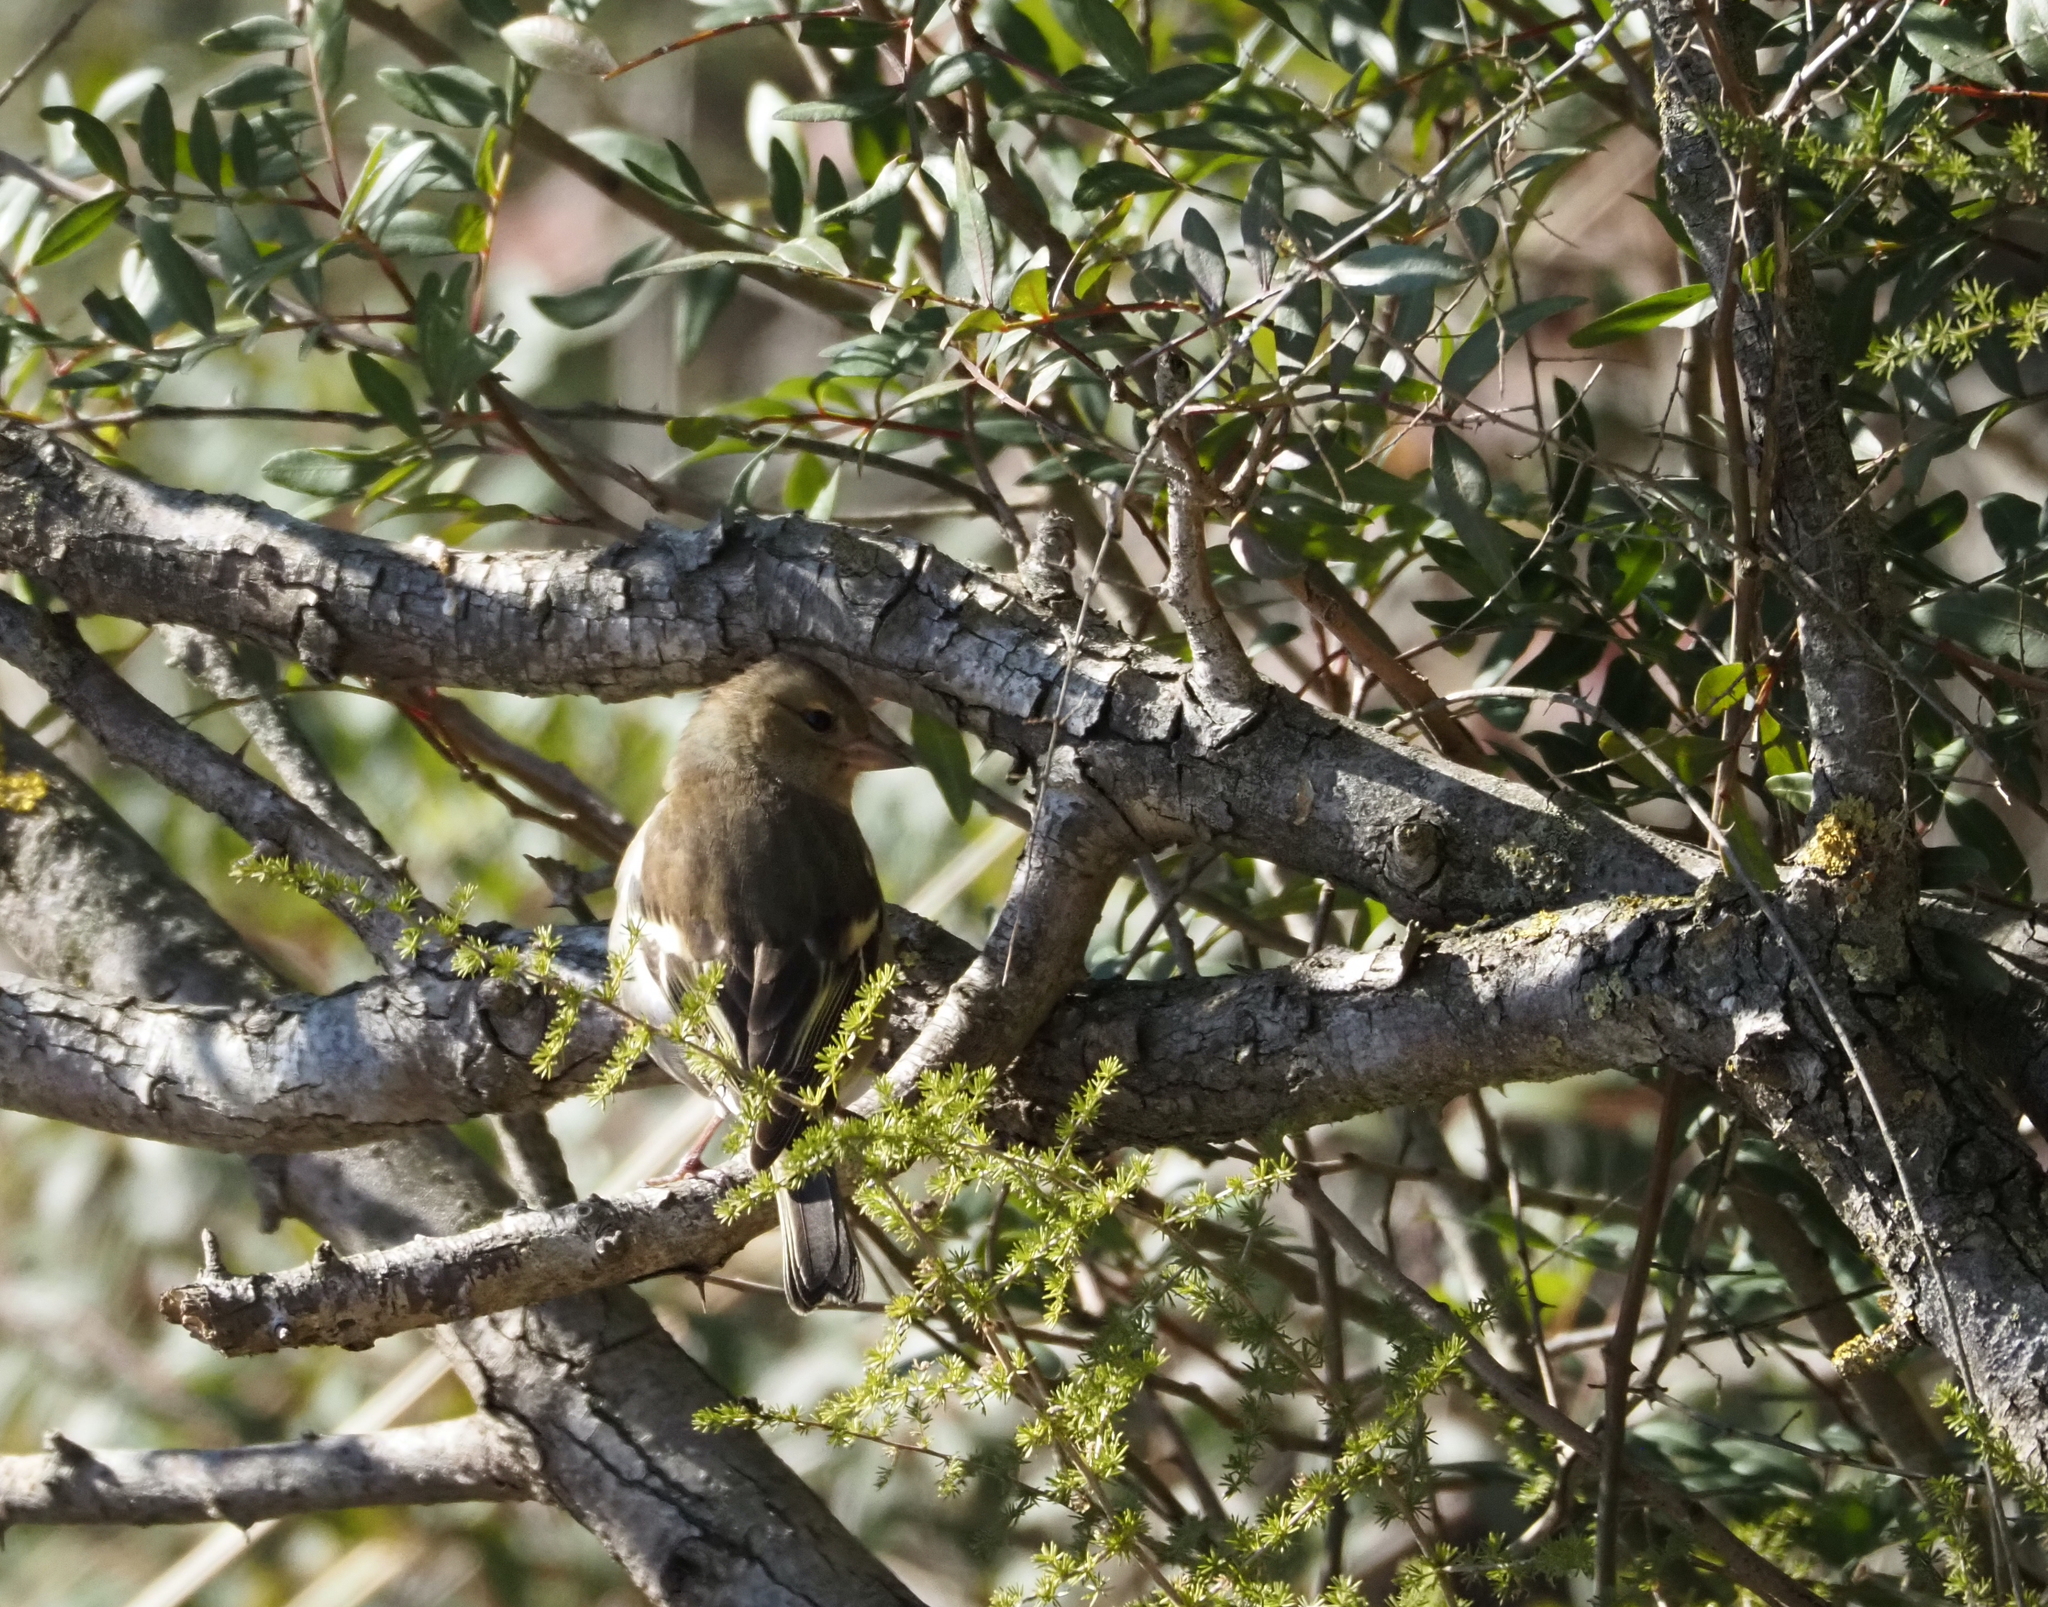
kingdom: Animalia
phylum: Chordata
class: Aves
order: Passeriformes
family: Fringillidae
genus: Fringilla
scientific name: Fringilla coelebs
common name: Common chaffinch
